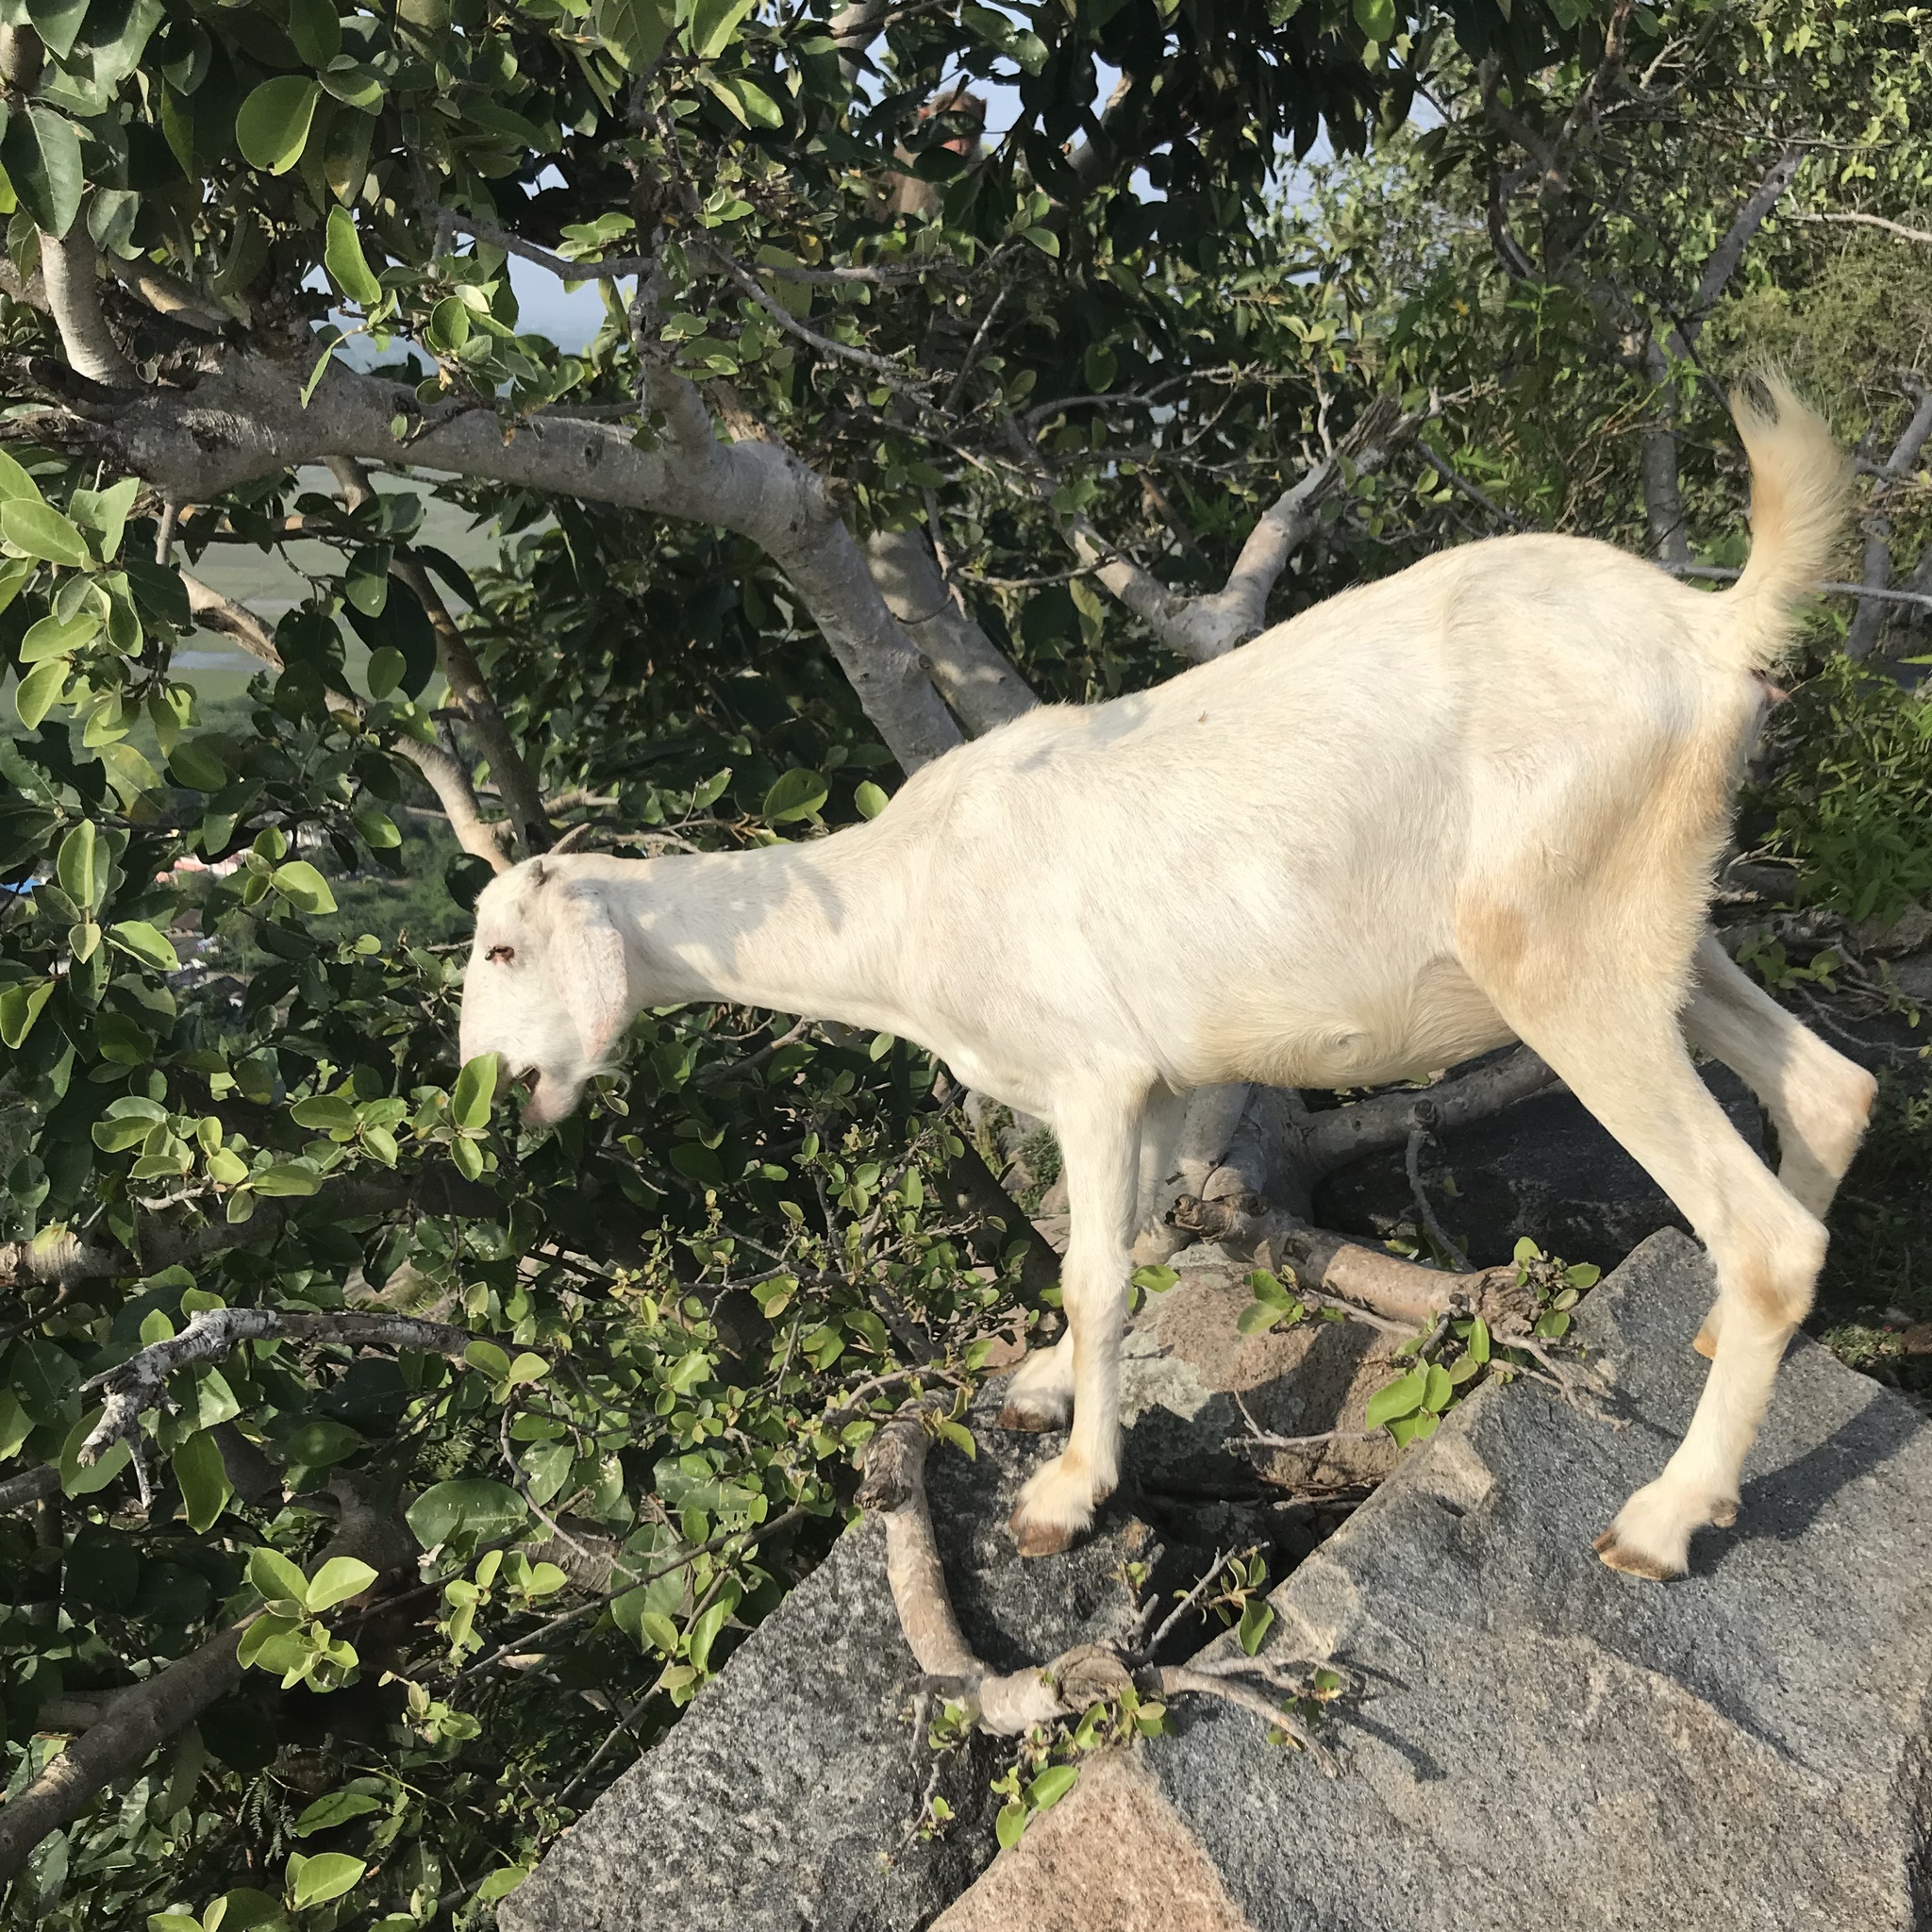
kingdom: Animalia
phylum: Chordata
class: Mammalia
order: Artiodactyla
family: Bovidae
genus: Capra
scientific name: Capra hircus
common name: Domestic goat
